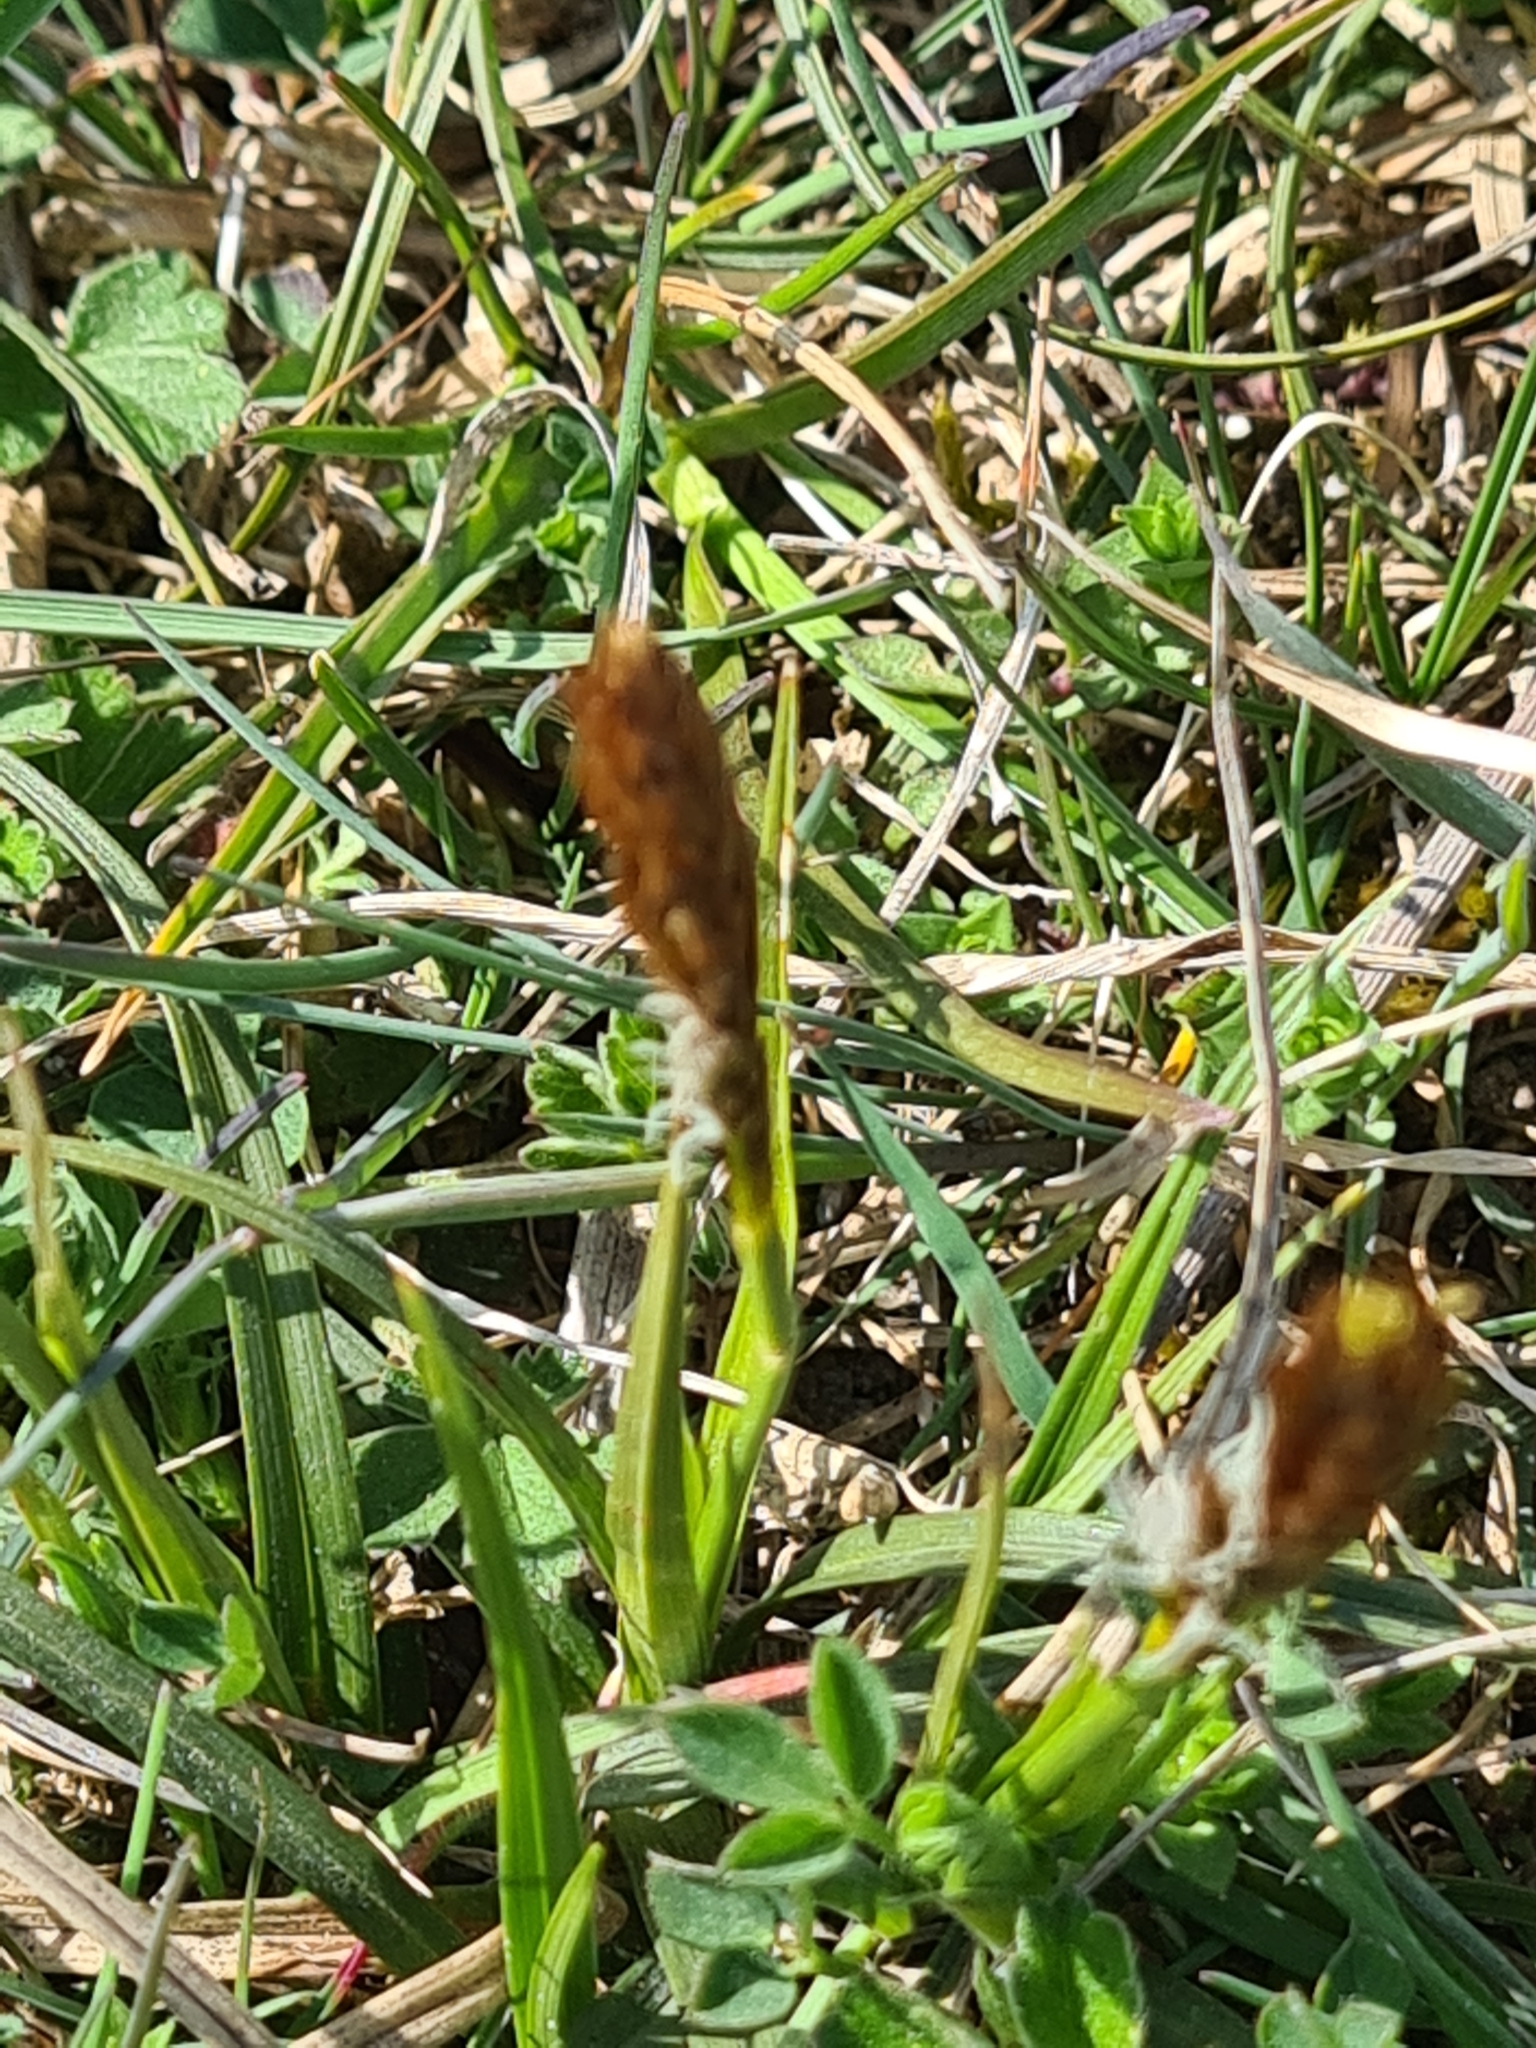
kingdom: Plantae
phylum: Tracheophyta
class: Liliopsida
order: Poales
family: Cyperaceae
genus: Carex
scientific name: Carex caryophyllea
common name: Spring sedge
